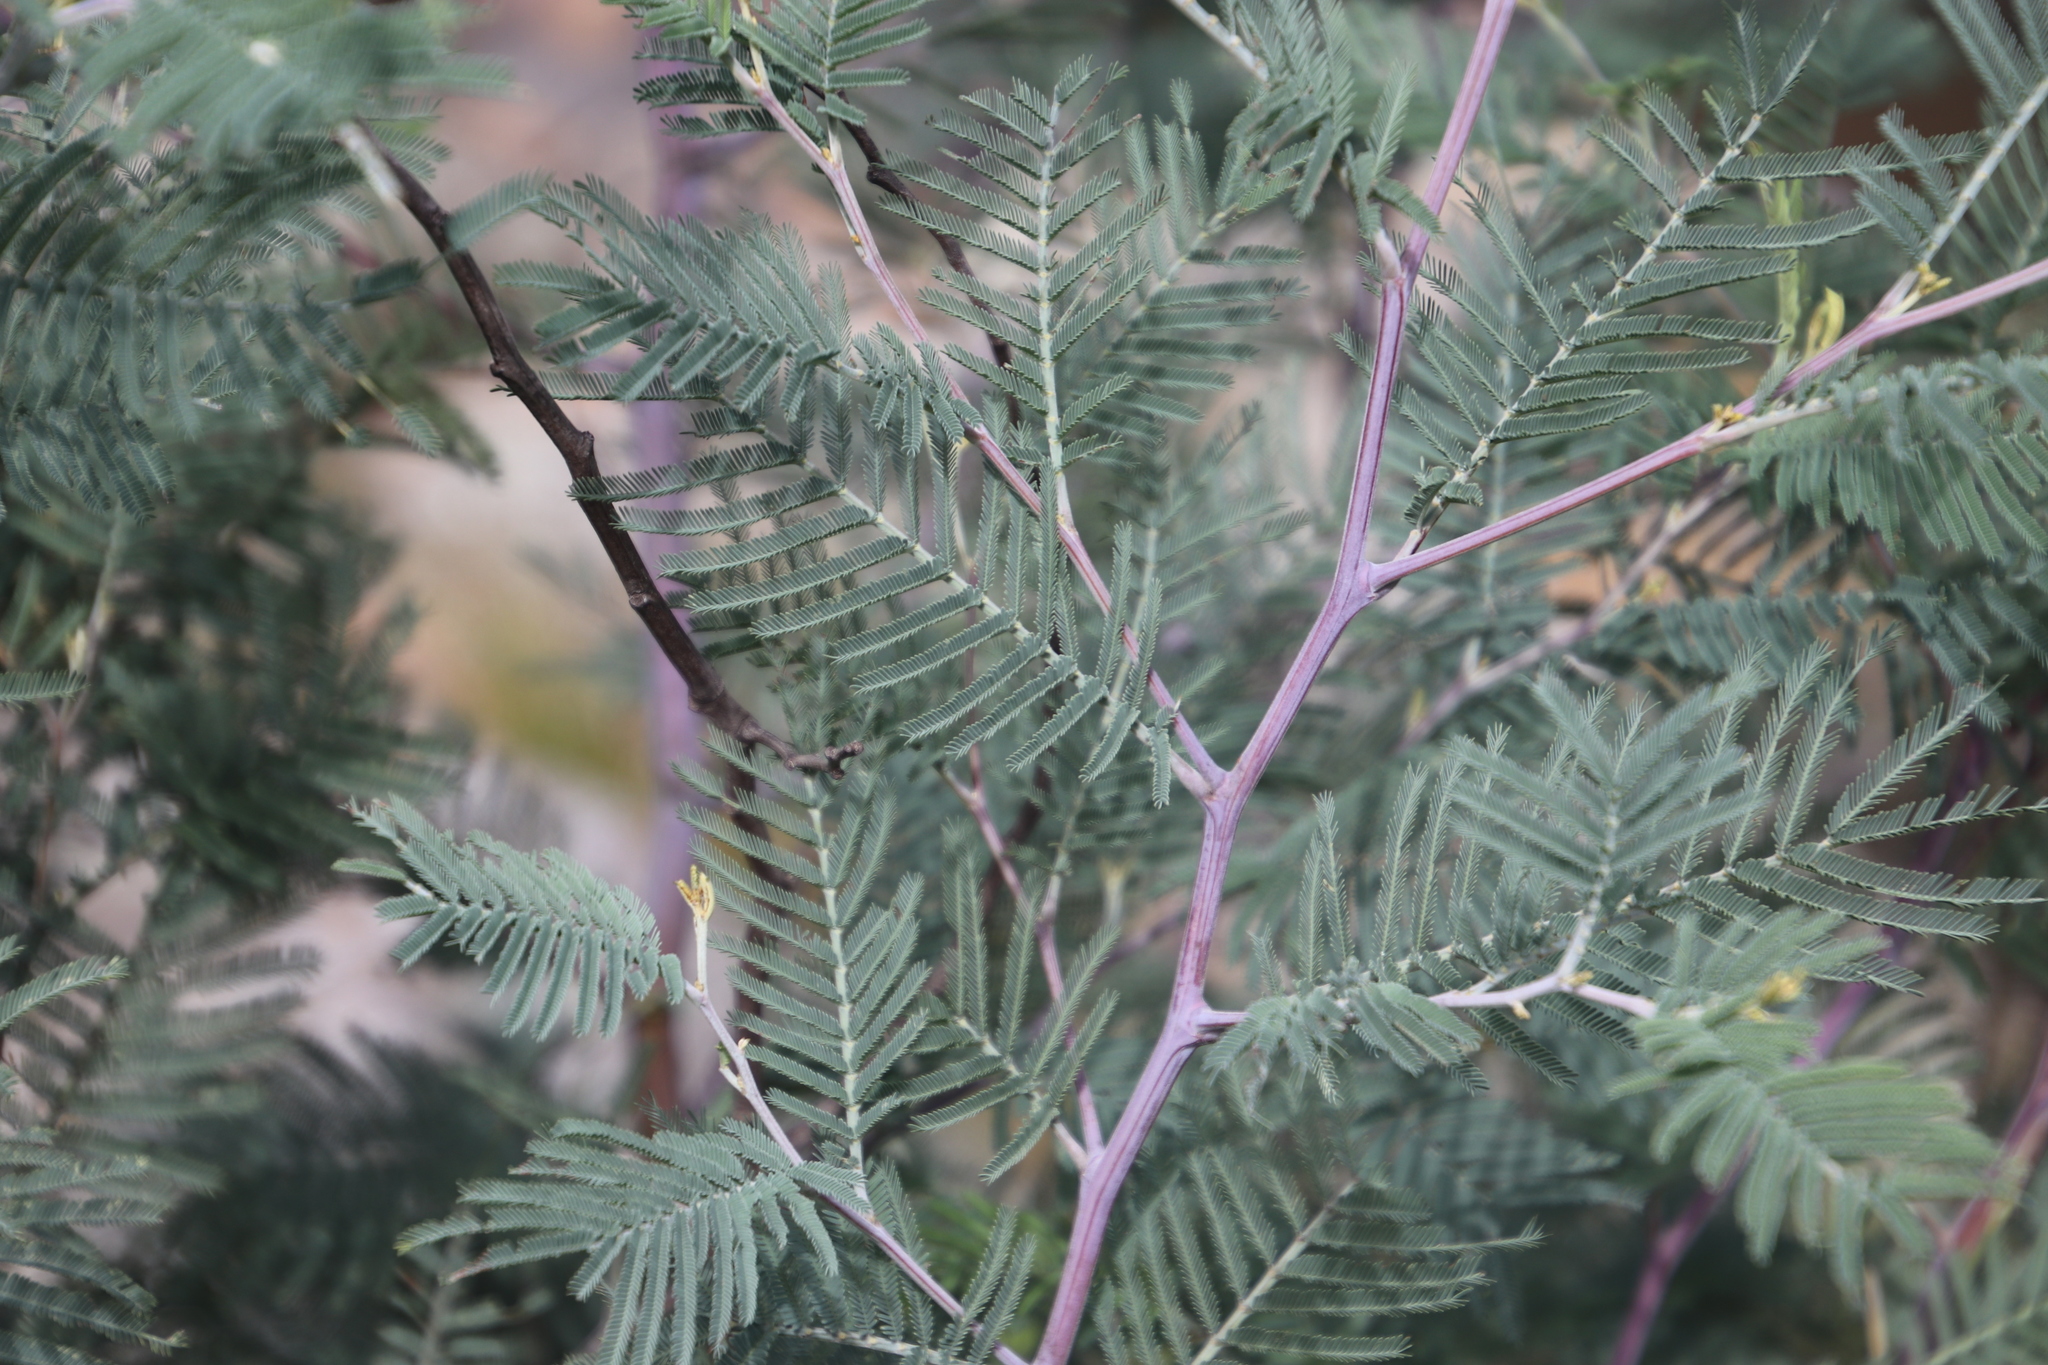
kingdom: Plantae
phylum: Tracheophyta
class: Magnoliopsida
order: Fabales
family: Fabaceae
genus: Acacia
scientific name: Acacia dealbata
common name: Silver wattle
